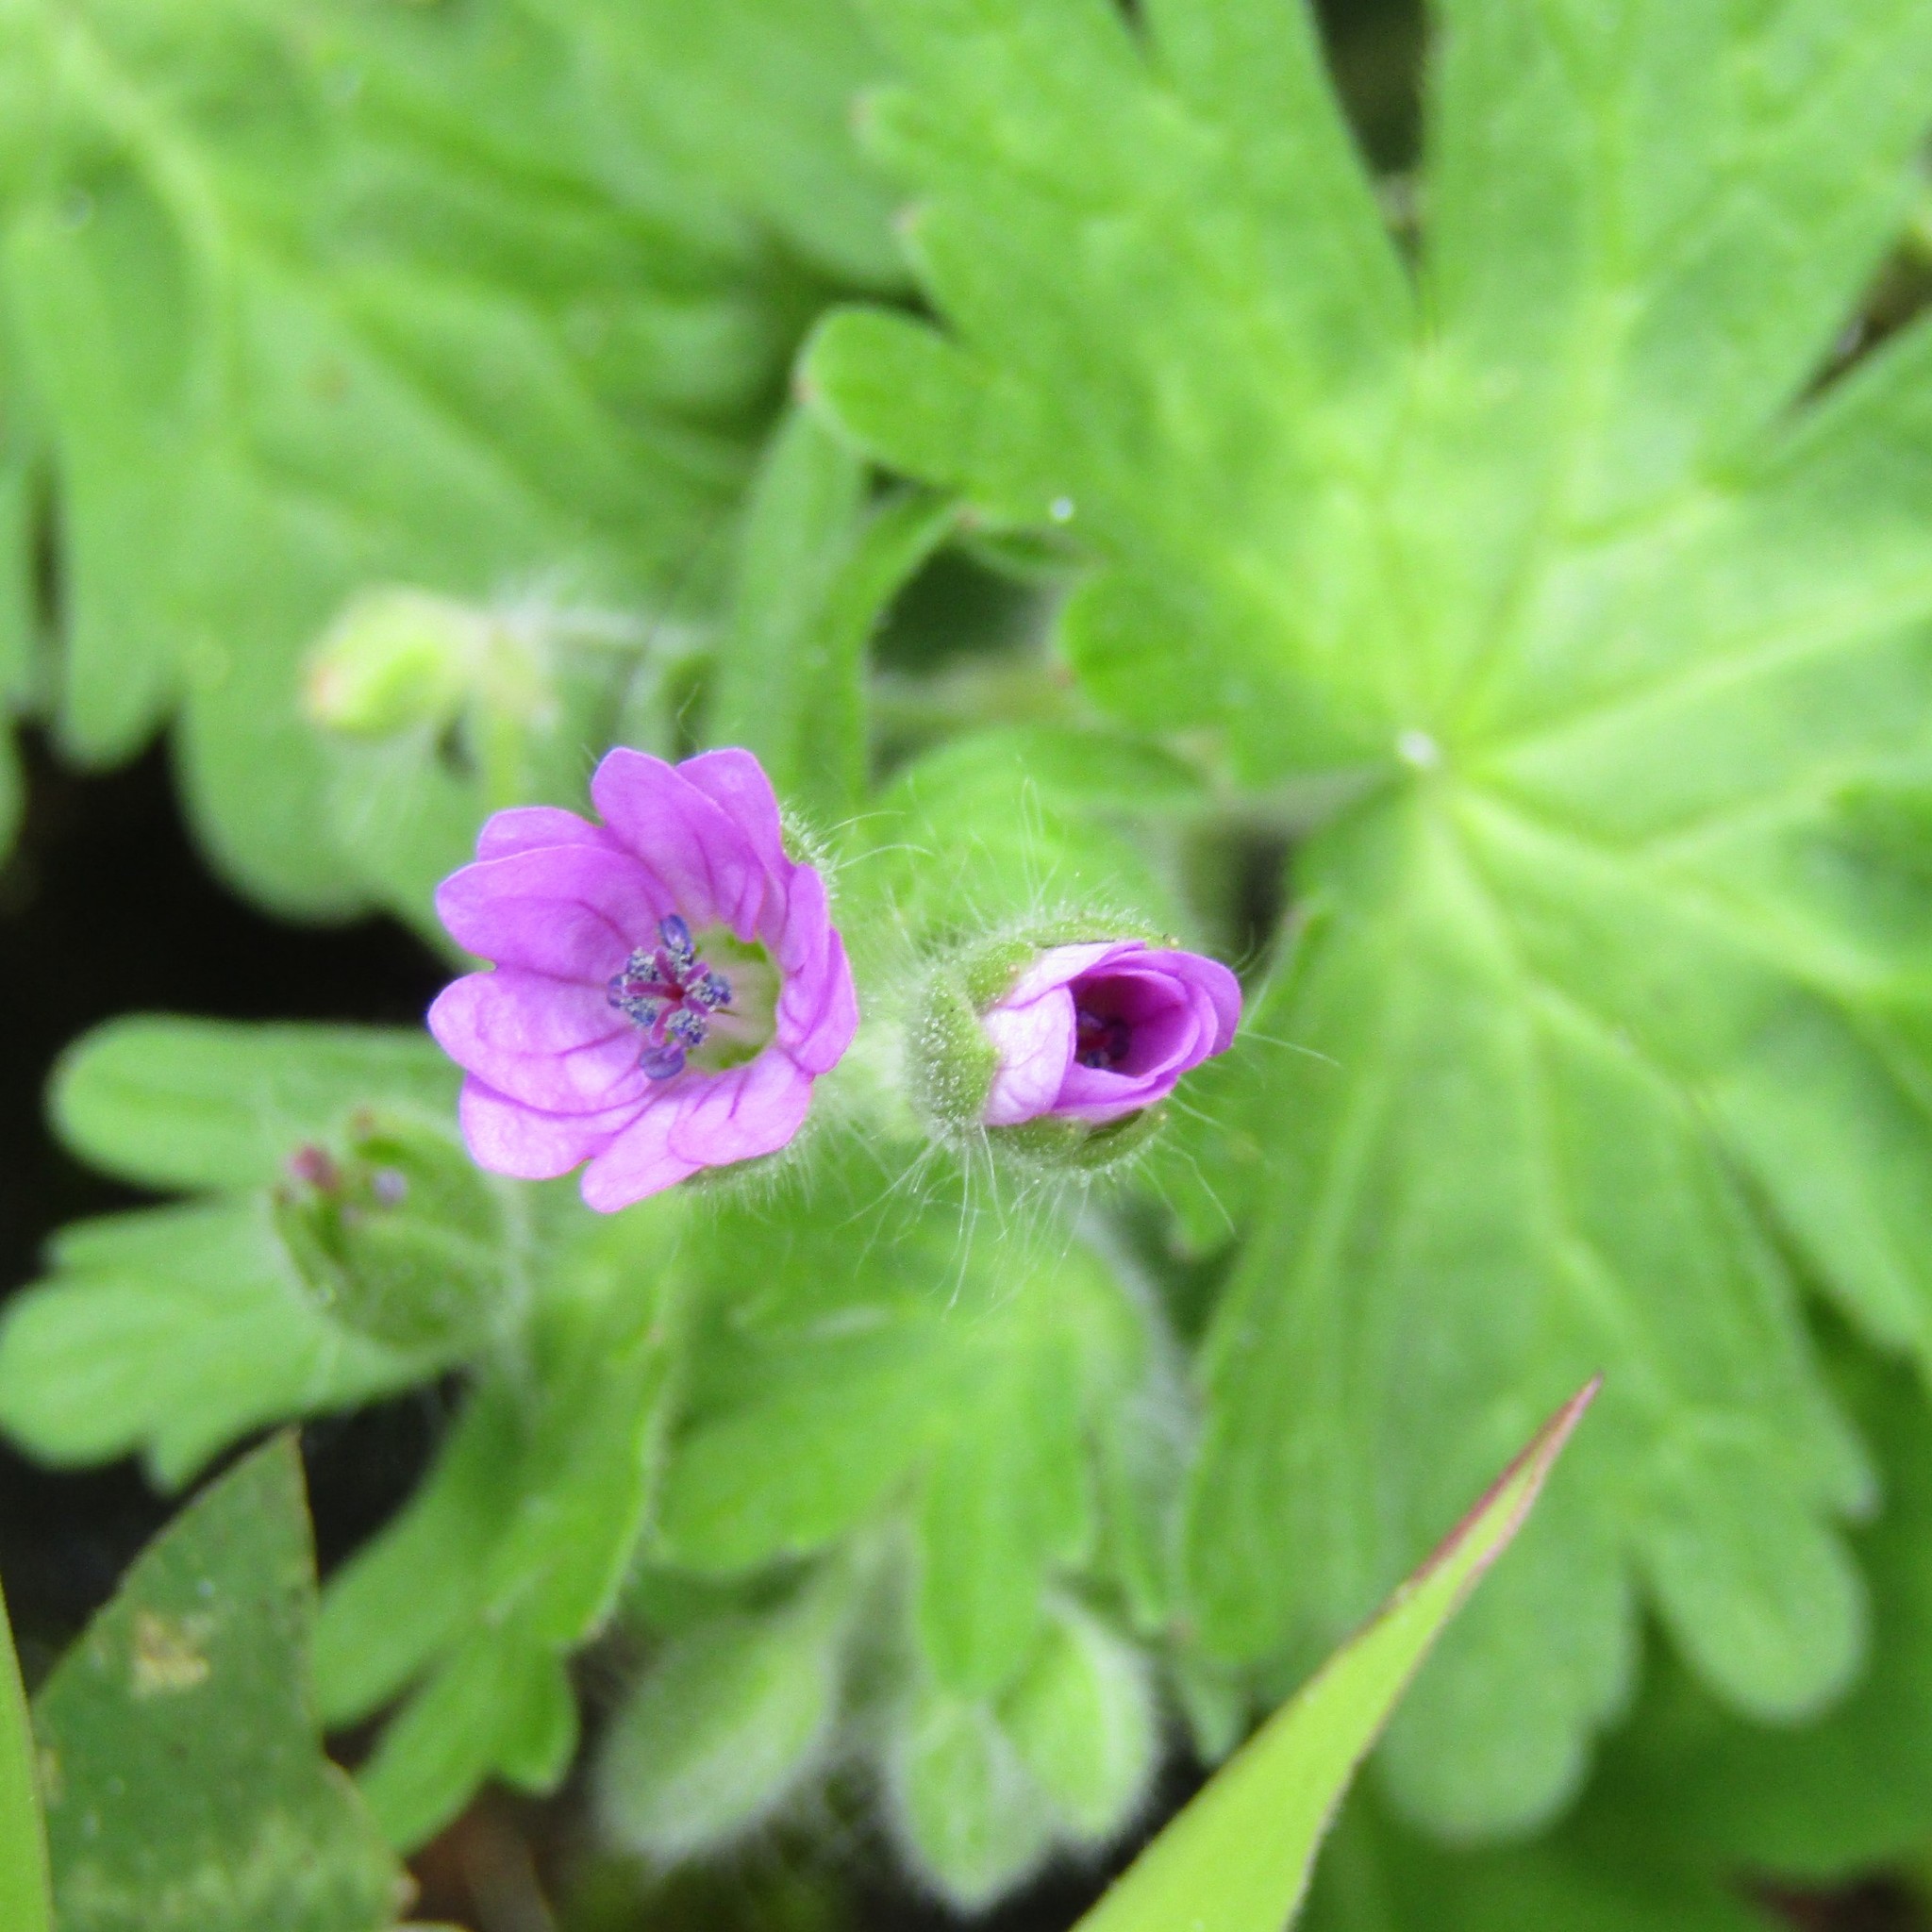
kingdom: Plantae
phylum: Tracheophyta
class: Magnoliopsida
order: Geraniales
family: Geraniaceae
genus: Geranium
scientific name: Geranium molle
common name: Dove's-foot crane's-bill
